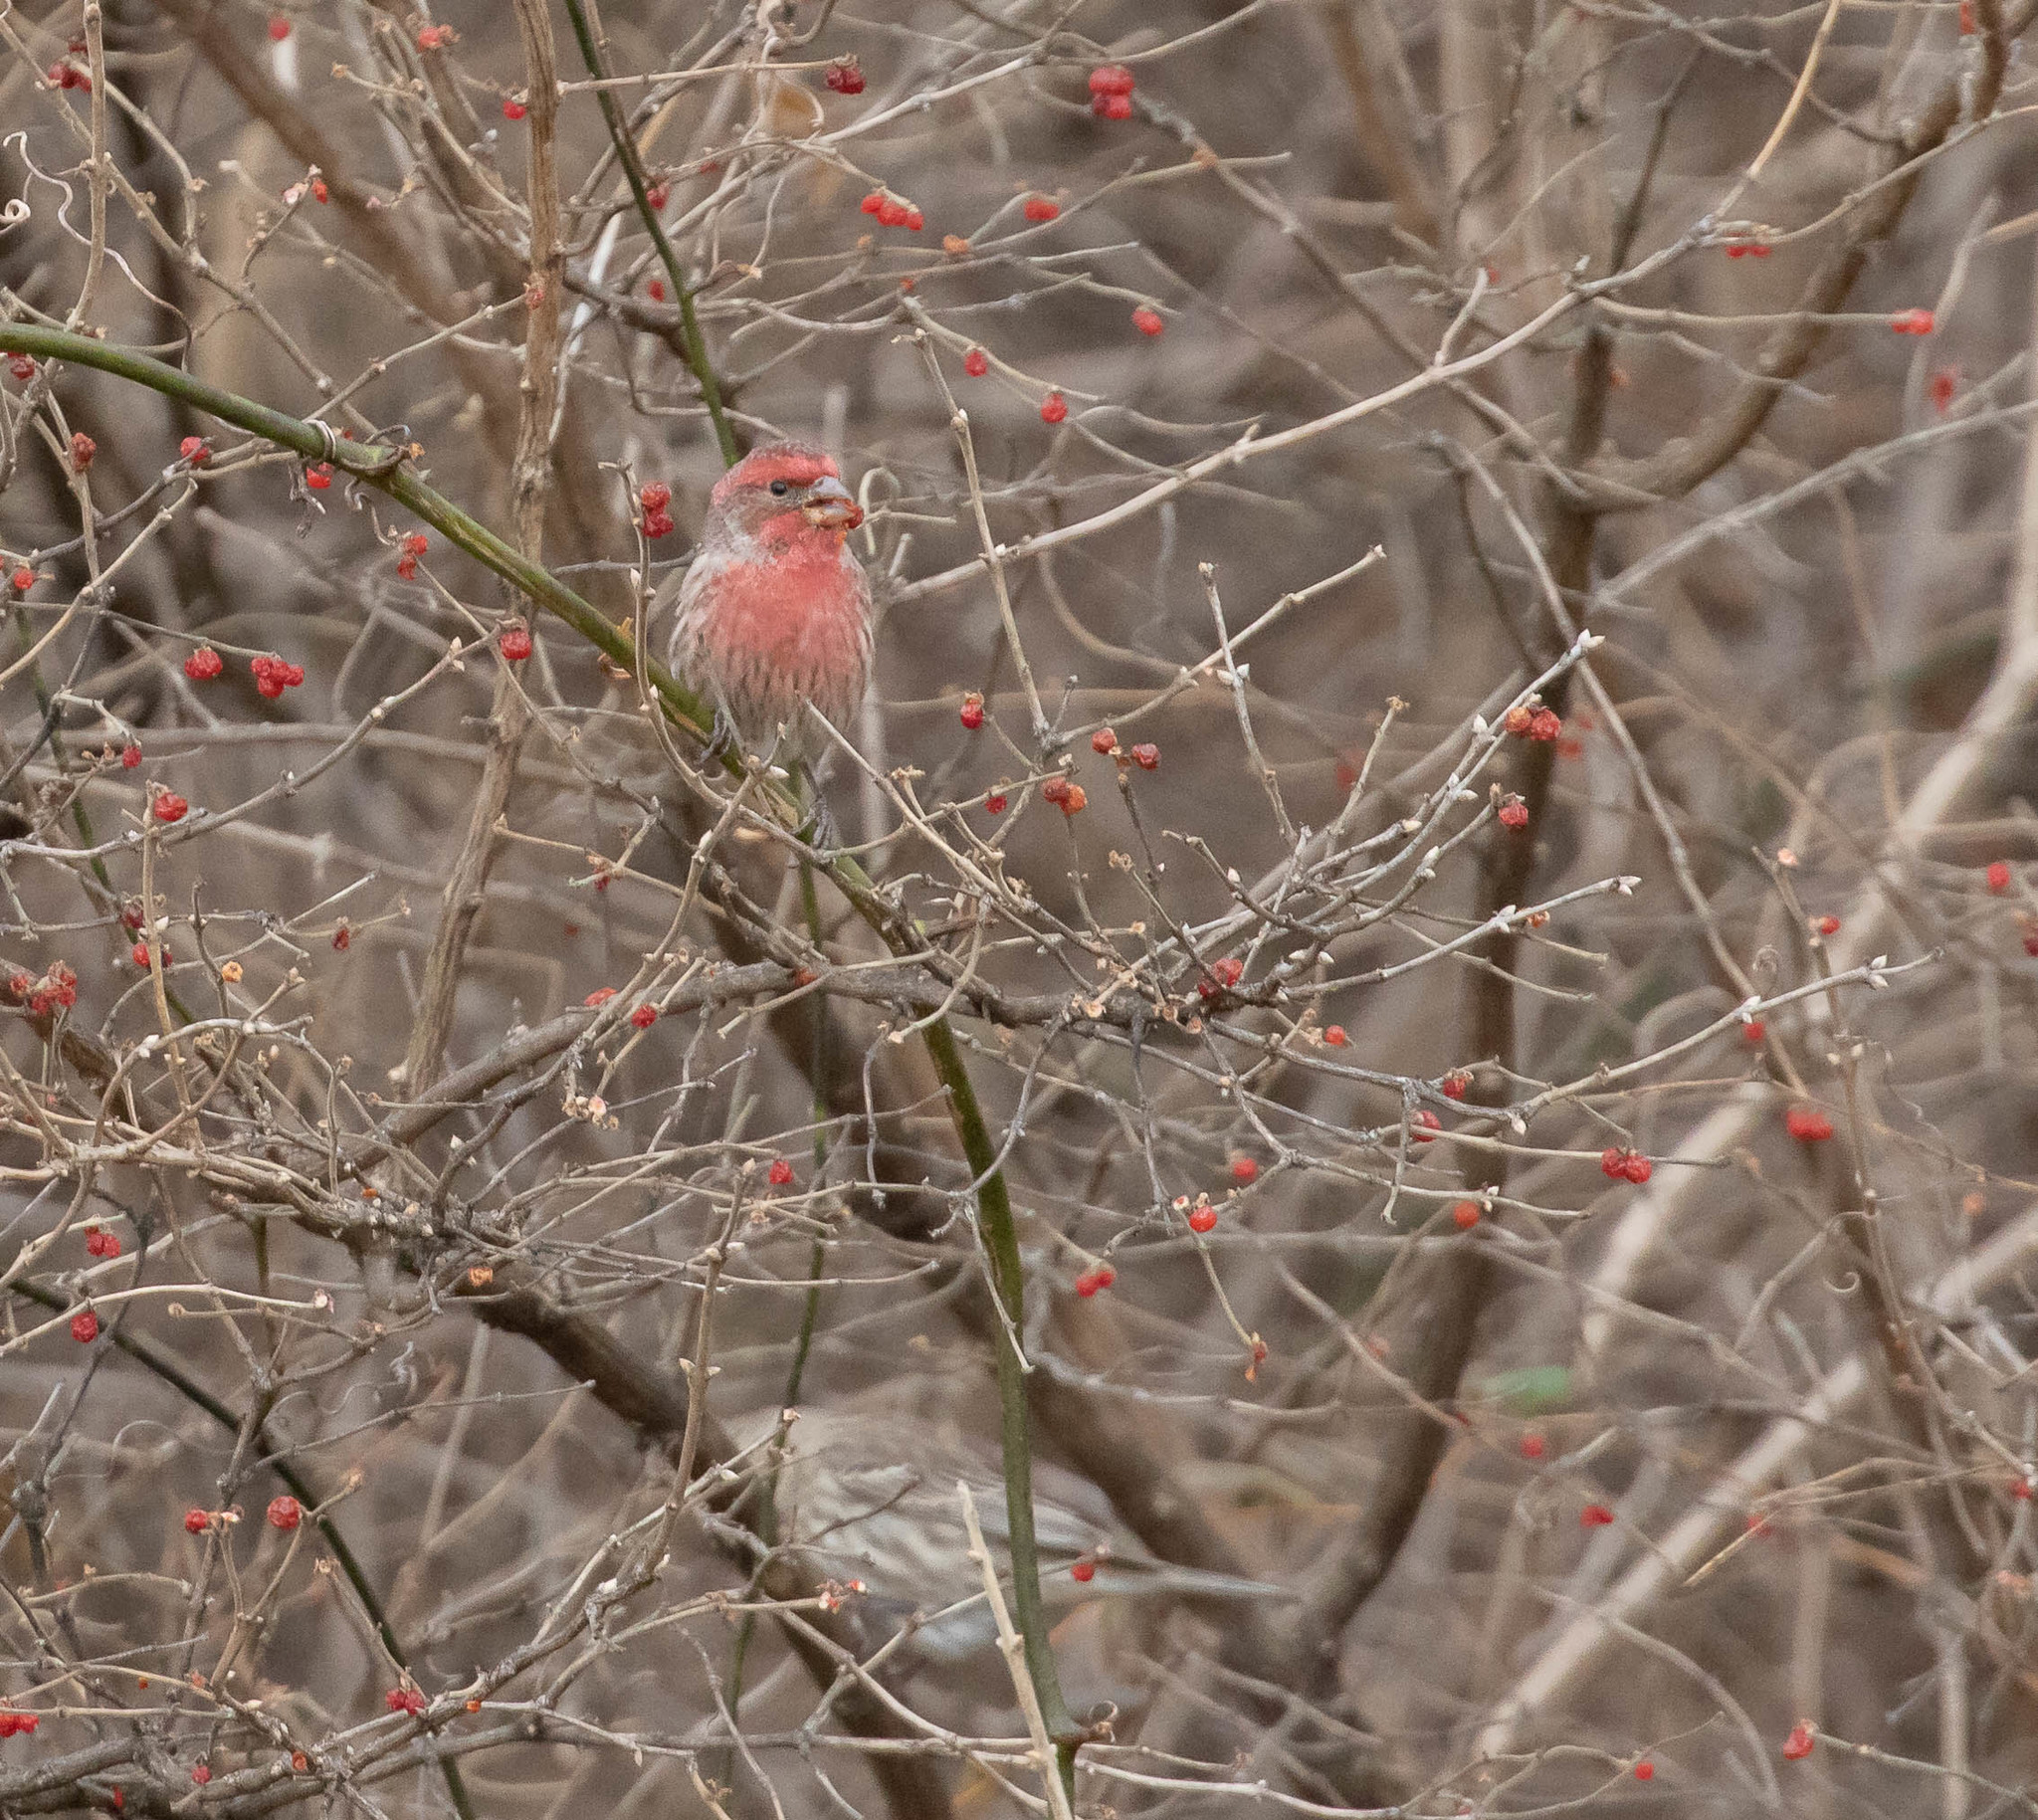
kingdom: Animalia
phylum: Chordata
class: Aves
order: Passeriformes
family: Fringillidae
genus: Haemorhous
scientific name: Haemorhous mexicanus
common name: House finch
